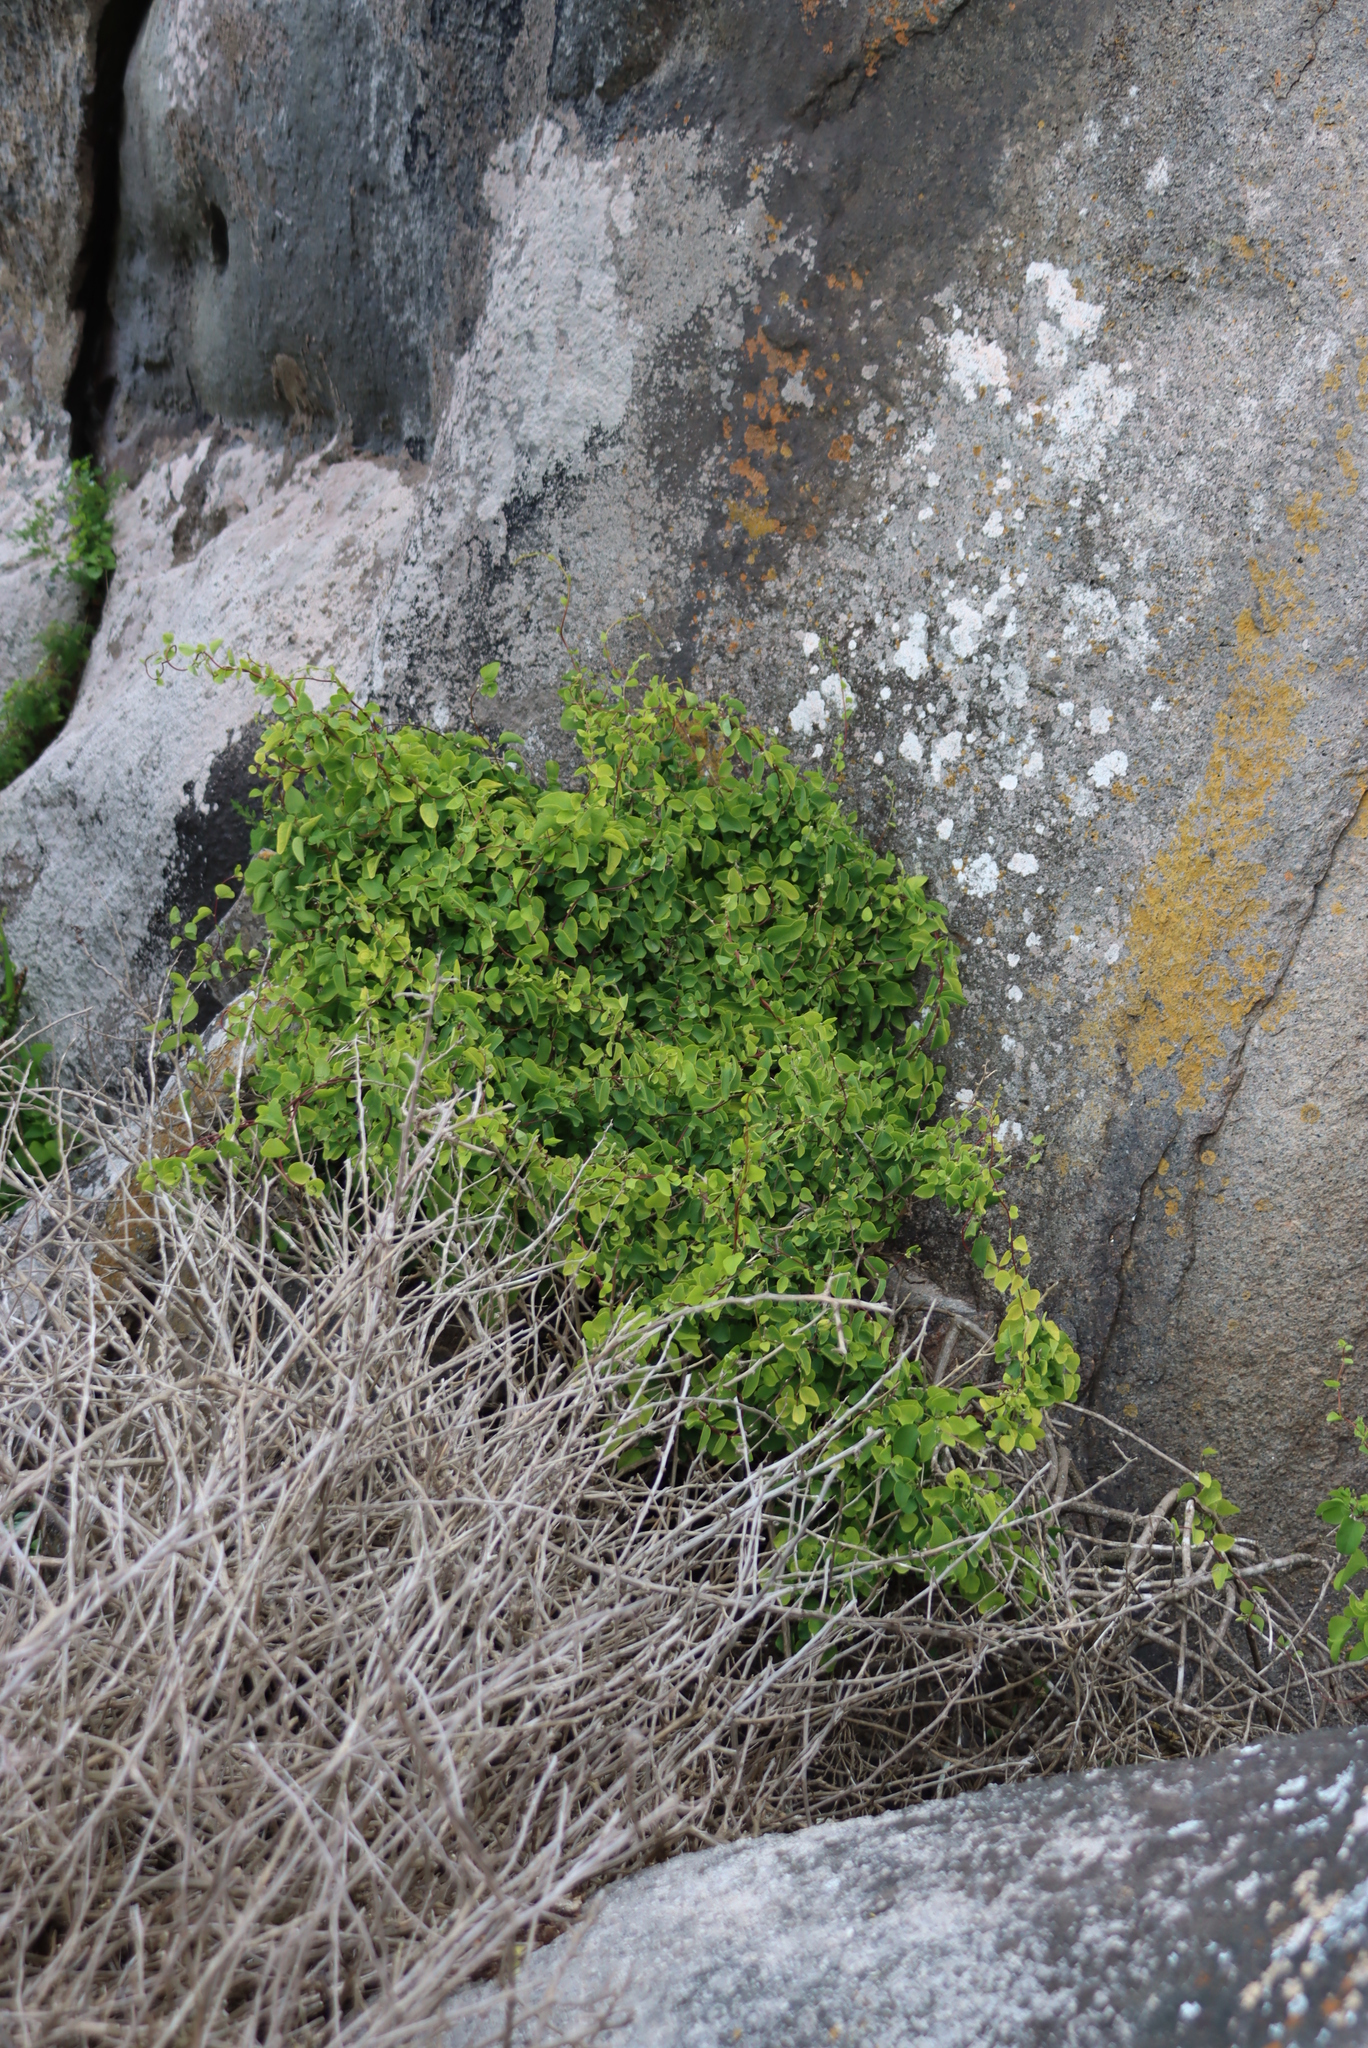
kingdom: Plantae
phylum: Tracheophyta
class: Magnoliopsida
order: Ranunculales
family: Menispermaceae
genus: Cissampelos
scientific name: Cissampelos capensis
